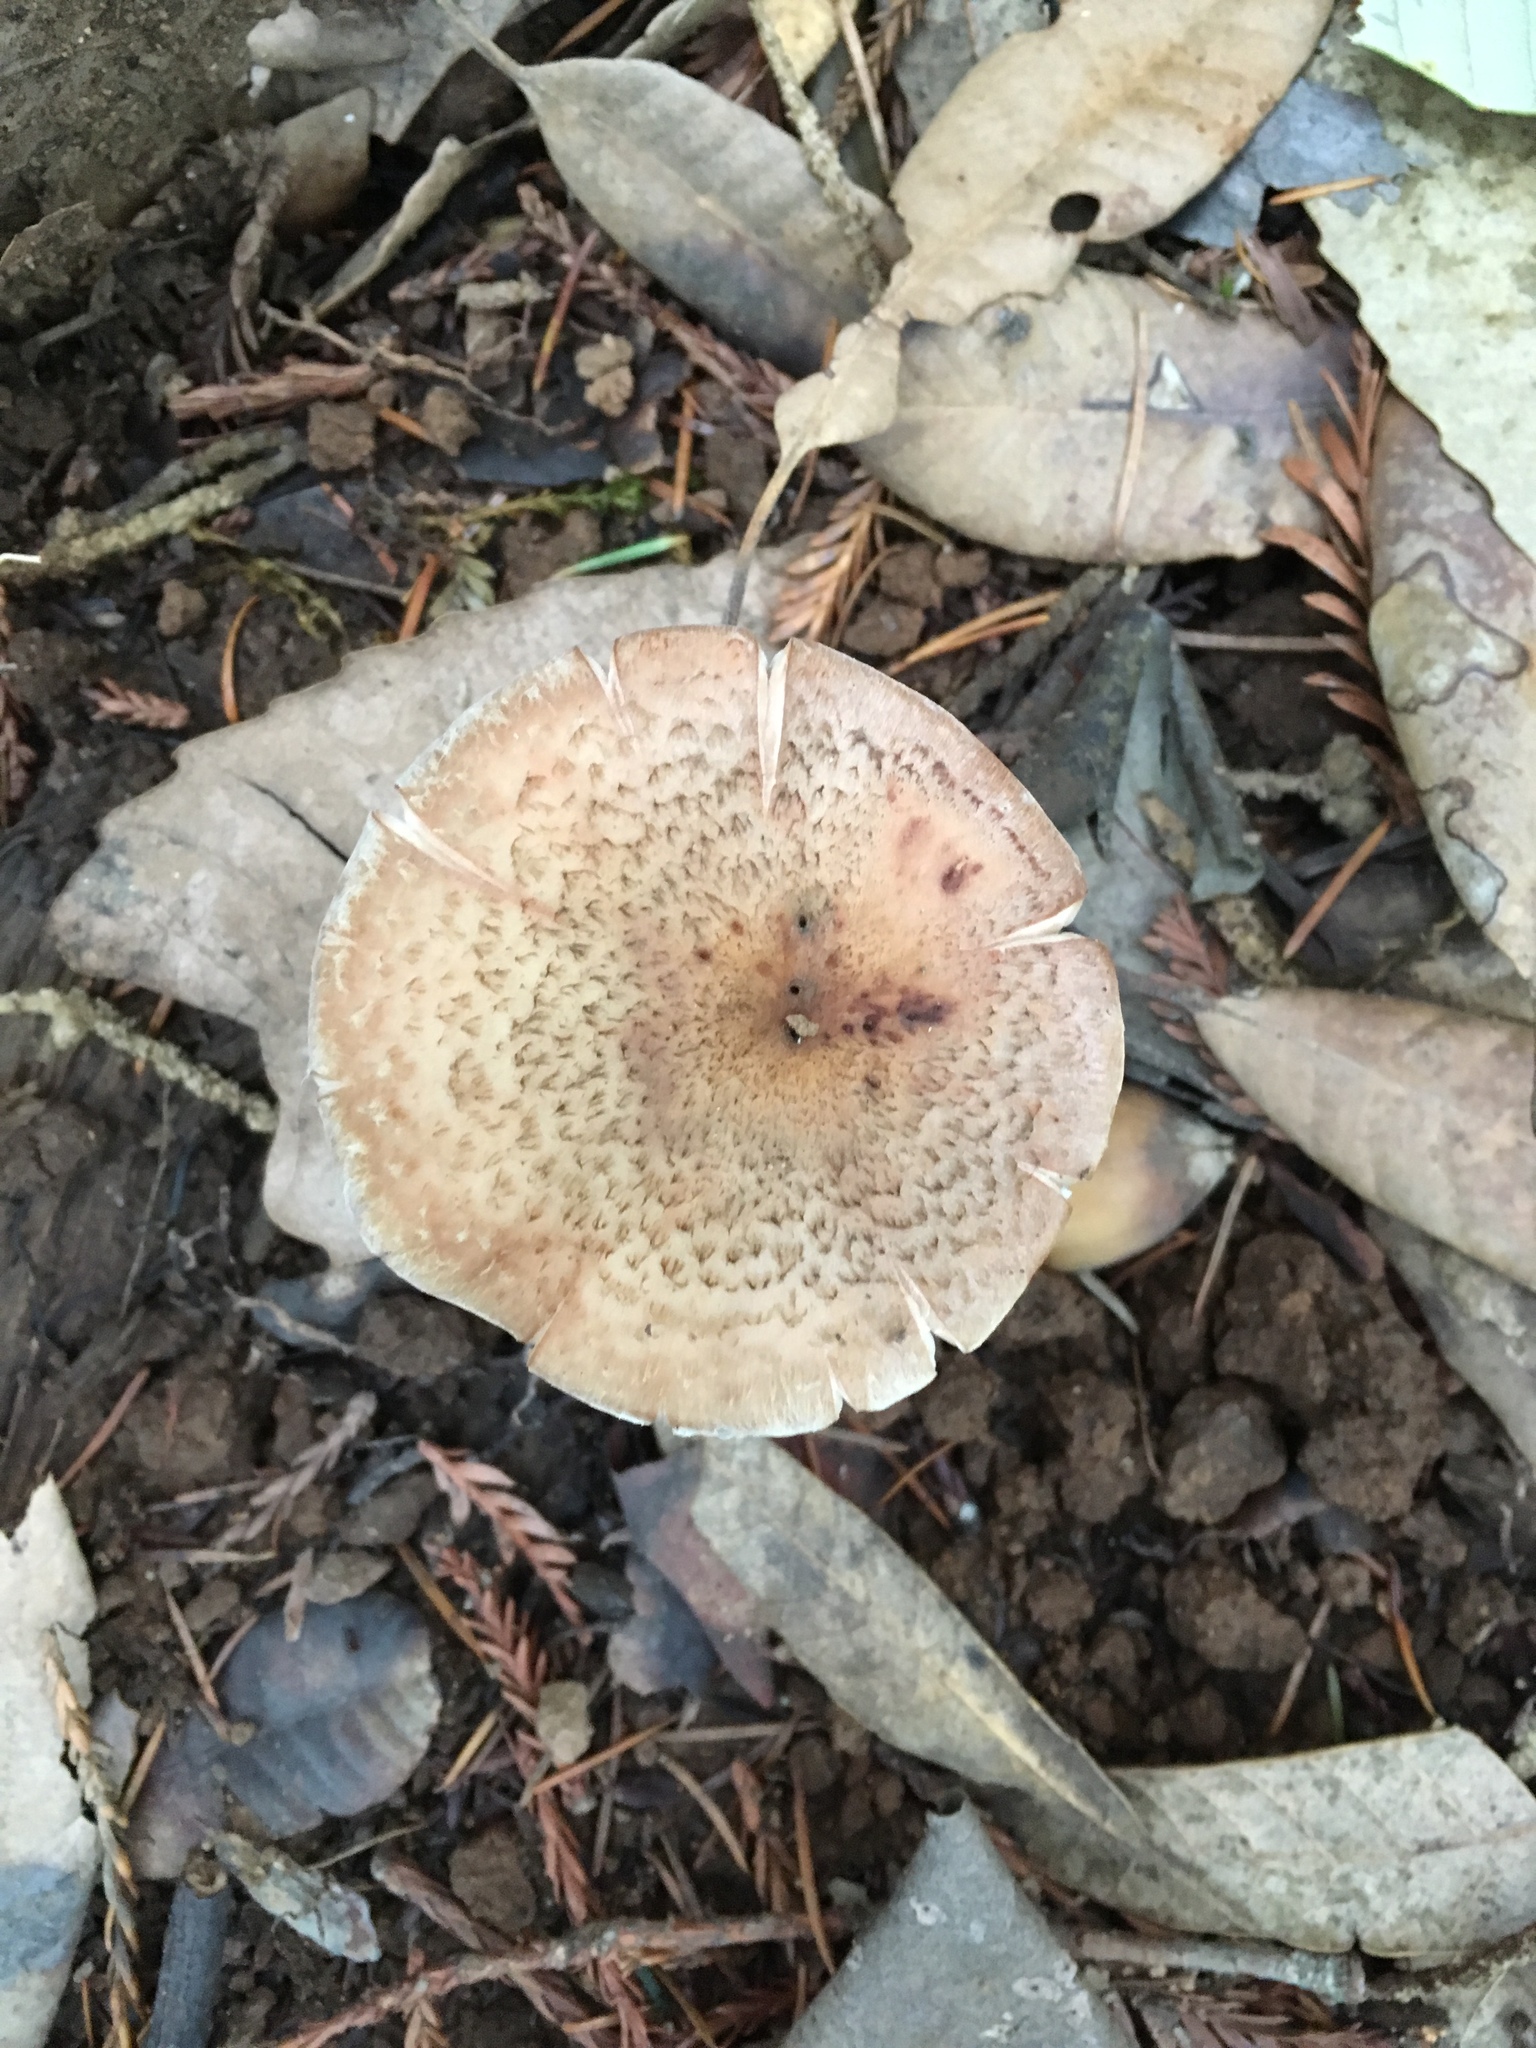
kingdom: Fungi
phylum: Basidiomycota
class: Agaricomycetes
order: Agaricales
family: Physalacriaceae
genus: Armillaria
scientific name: Armillaria sinapina
